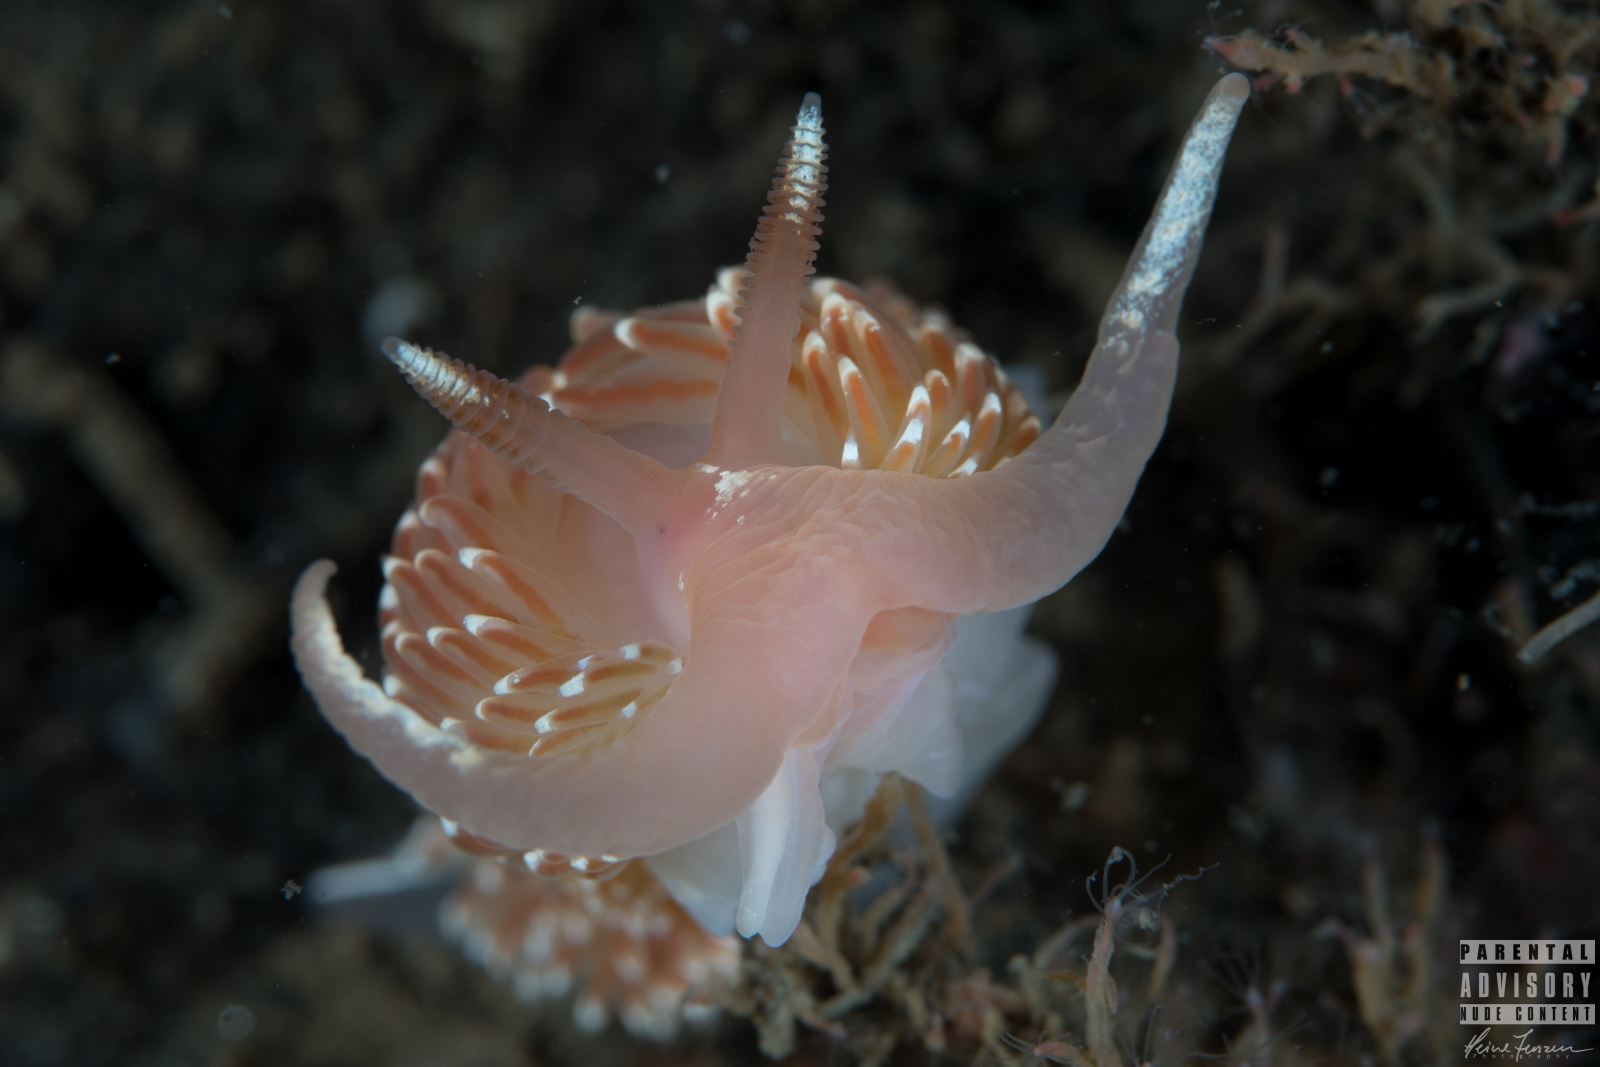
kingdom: Animalia
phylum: Mollusca
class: Gastropoda
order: Nudibranchia
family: Facelinidae
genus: Facelina
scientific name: Facelina bostoniensis
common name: Boston facelina
